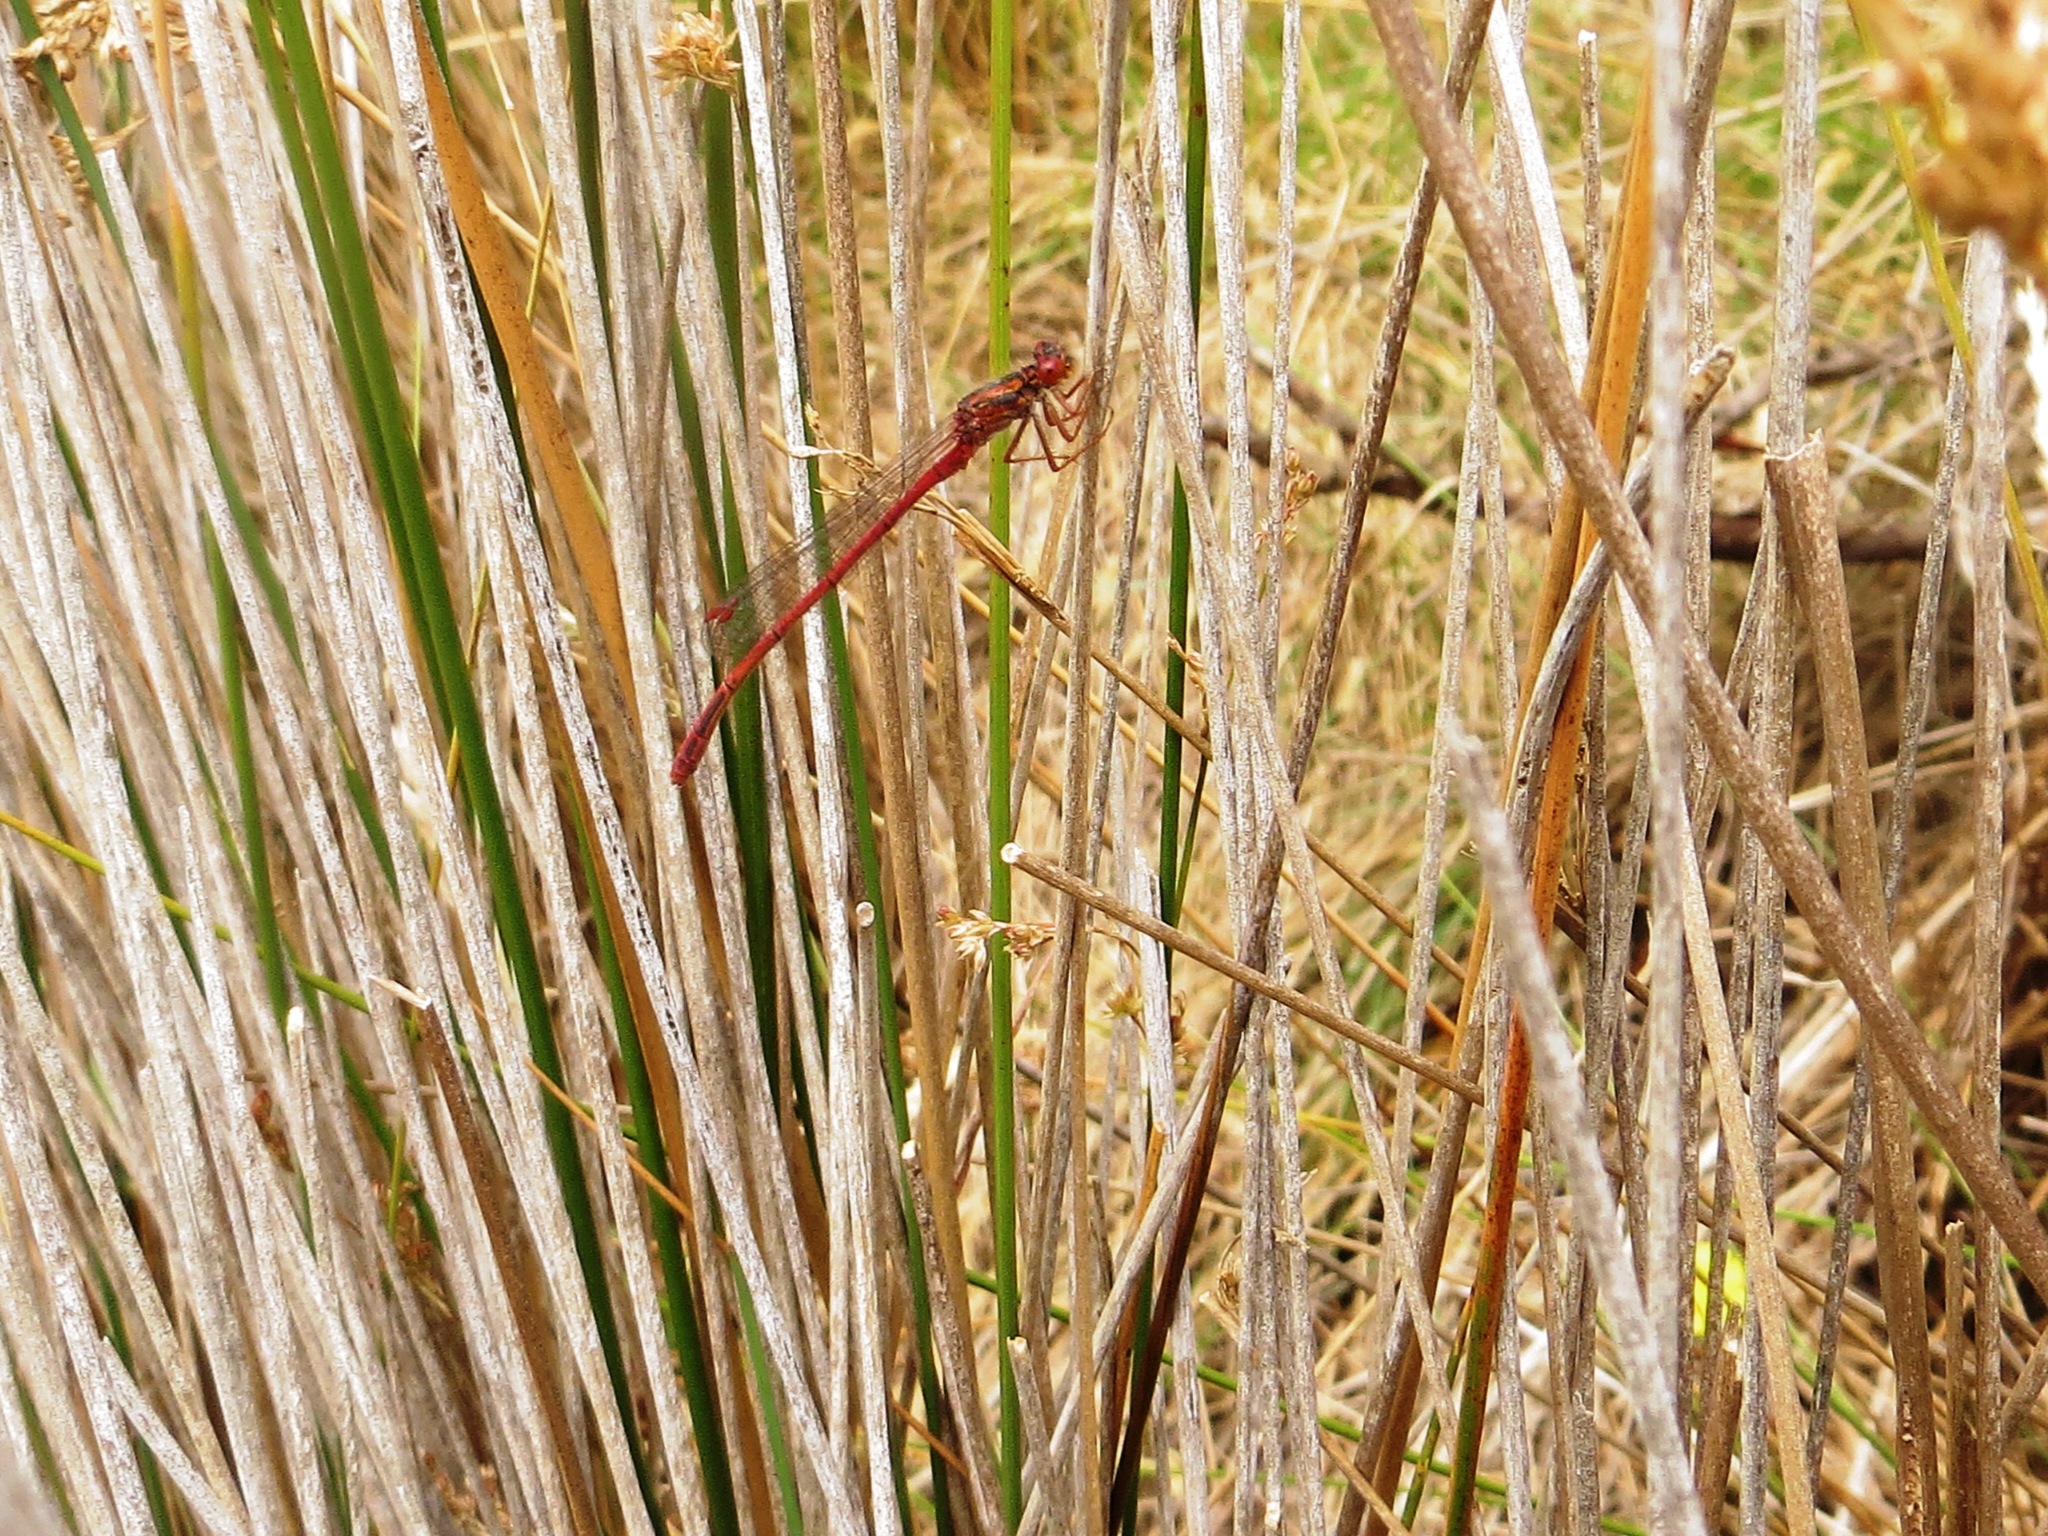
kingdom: Animalia
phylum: Arthropoda
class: Insecta
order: Odonata
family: Coenagrionidae
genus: Xanthocnemis
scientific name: Xanthocnemis zealandica
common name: Common redcoat damselfly
